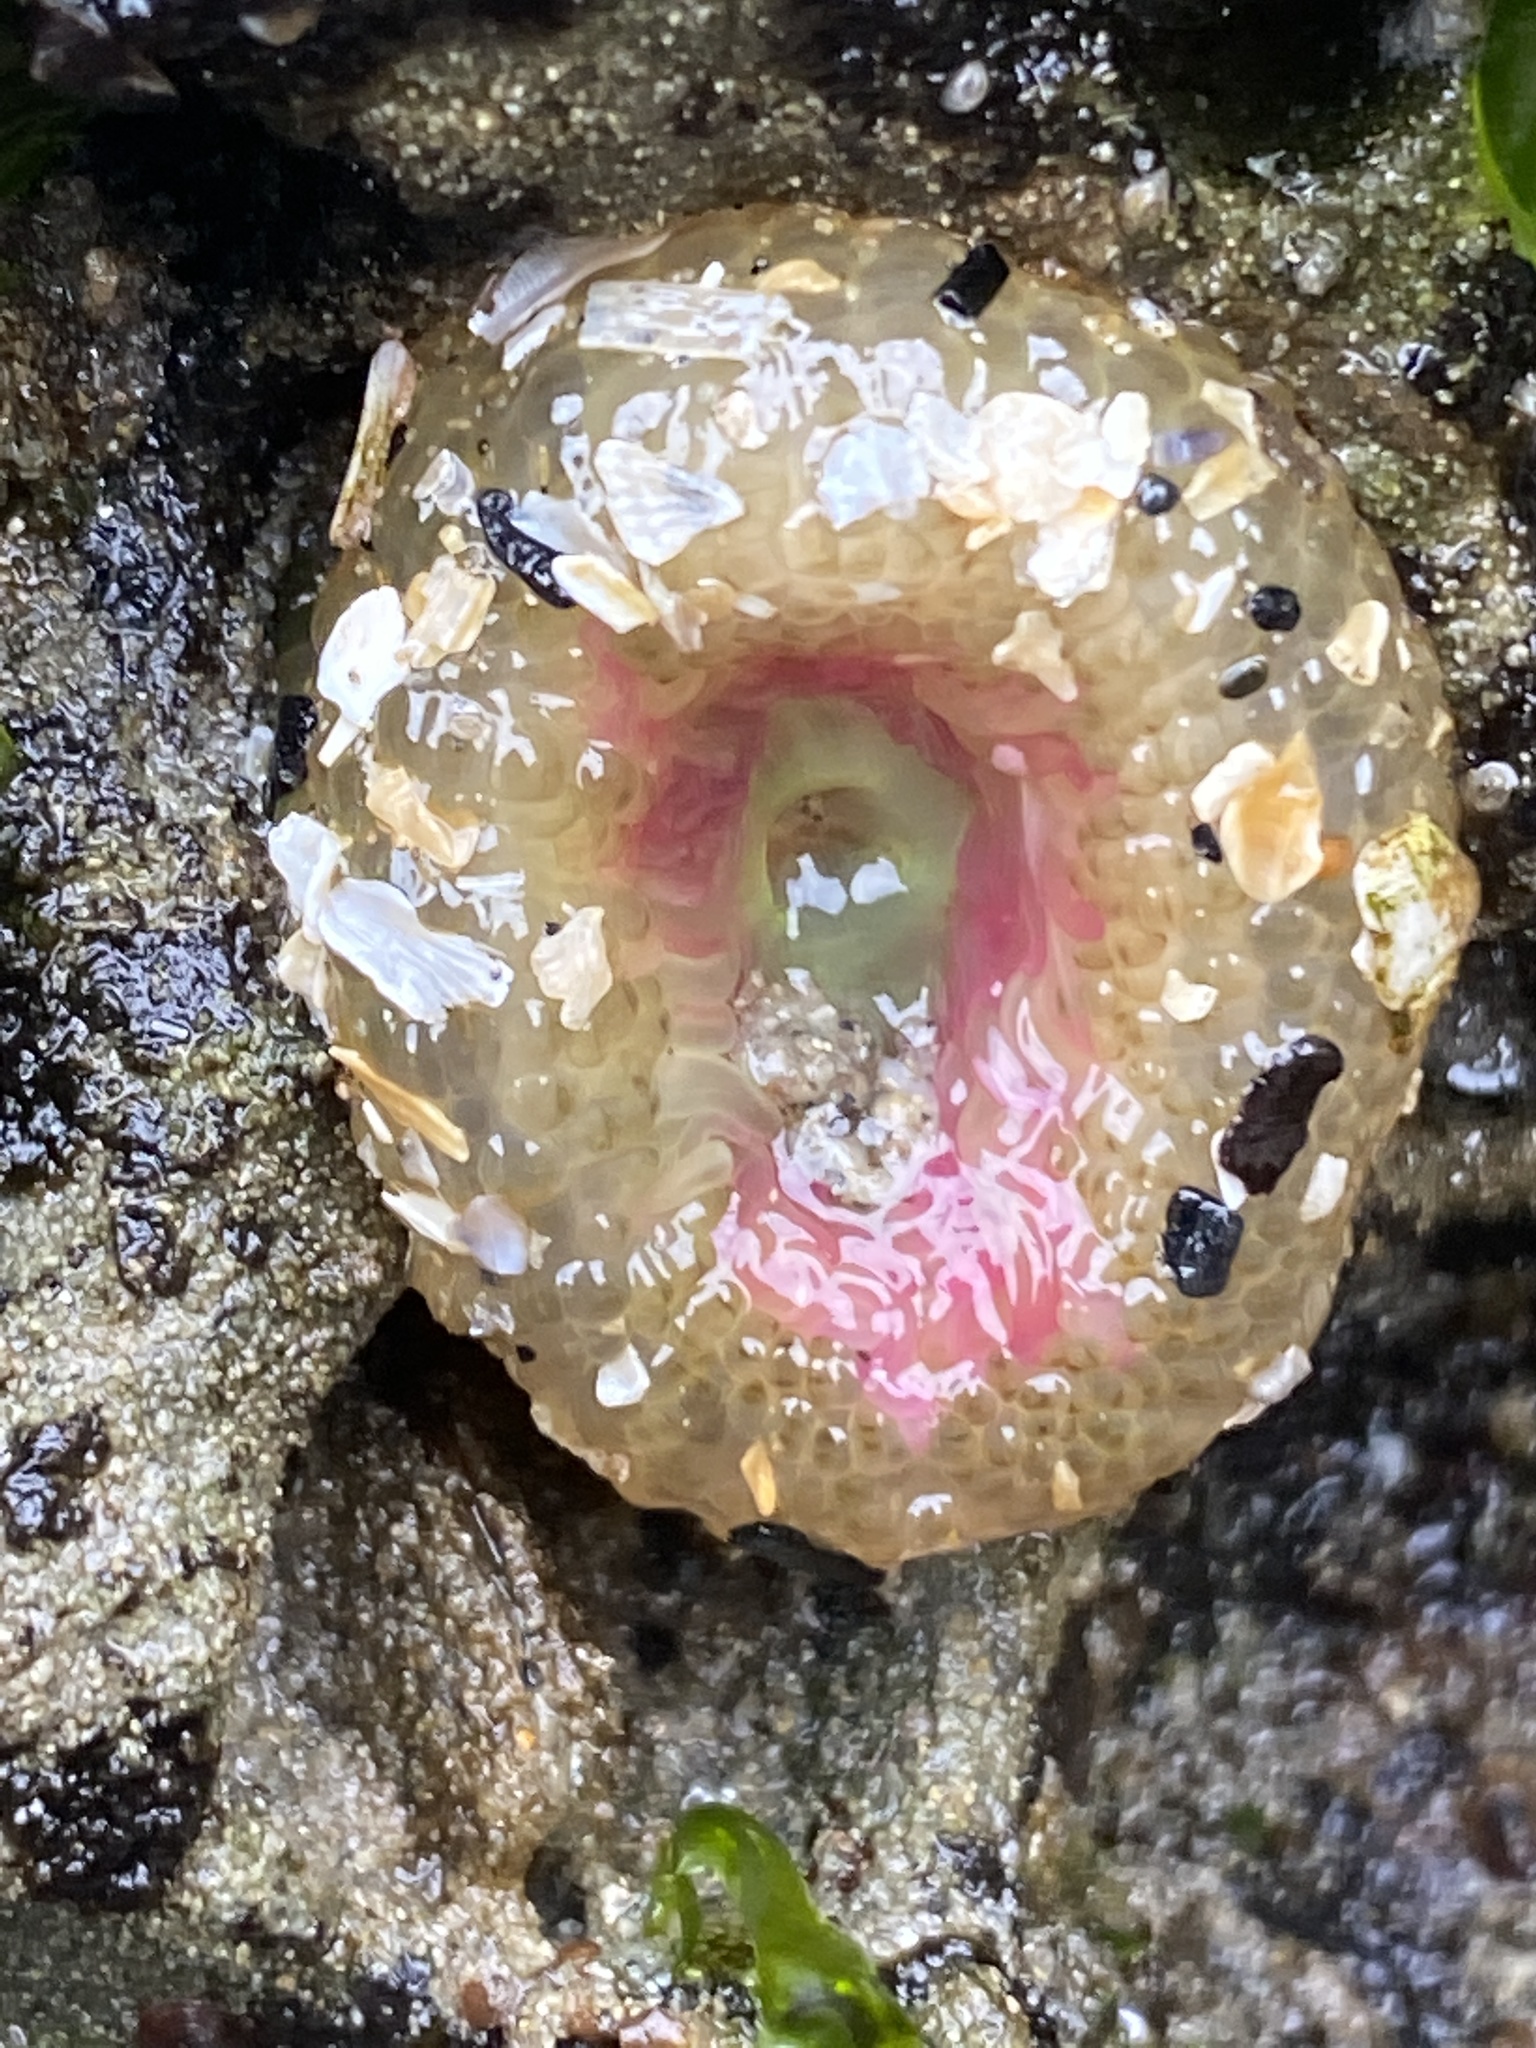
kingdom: Animalia
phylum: Cnidaria
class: Anthozoa
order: Actiniaria
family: Actiniidae
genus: Anthopleura
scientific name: Anthopleura elegantissima
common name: Clonal anemone
